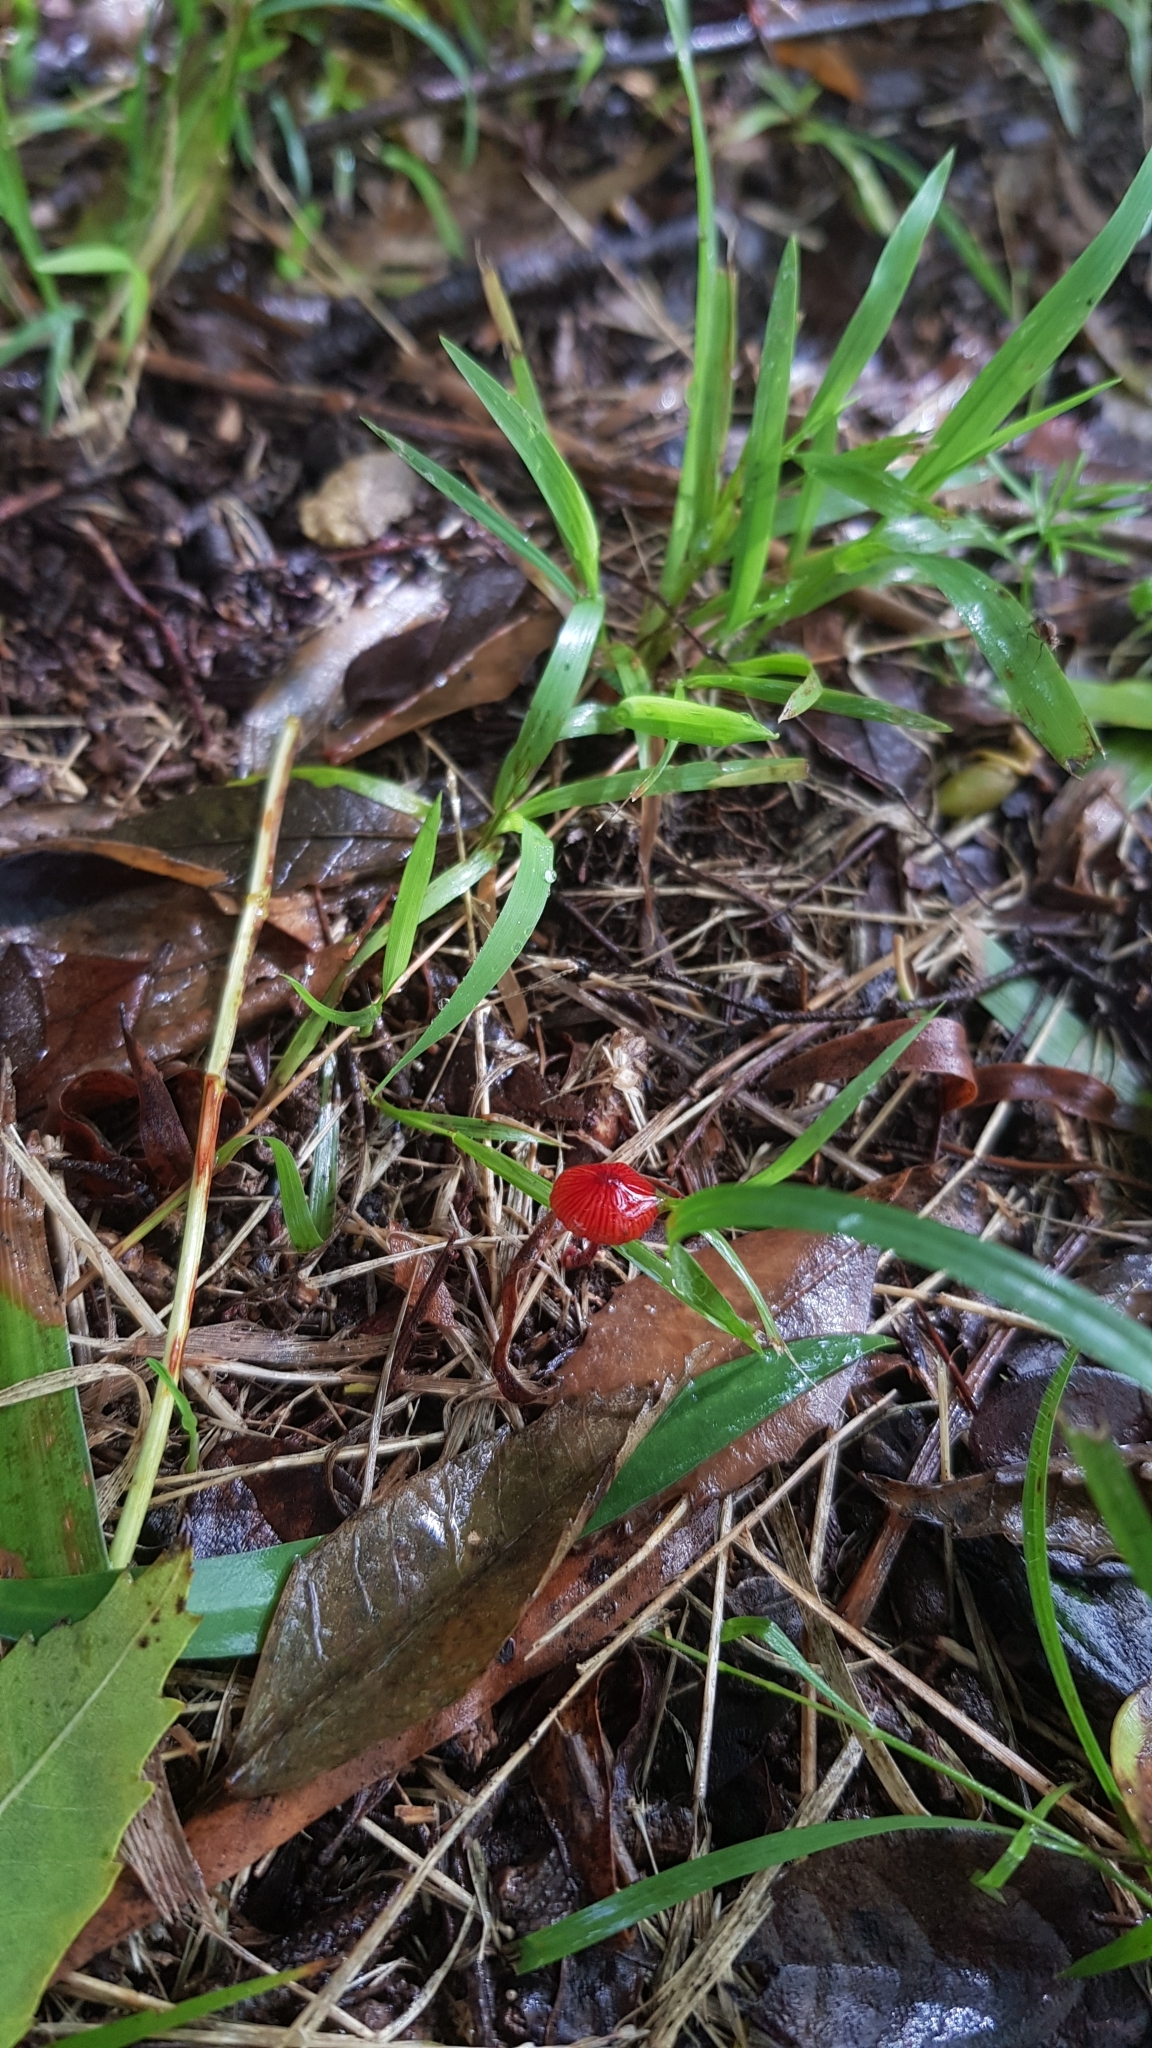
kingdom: Fungi
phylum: Basidiomycota
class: Agaricomycetes
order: Agaricales
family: Mycenaceae
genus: Cruentomycena
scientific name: Cruentomycena viscidocruenta
